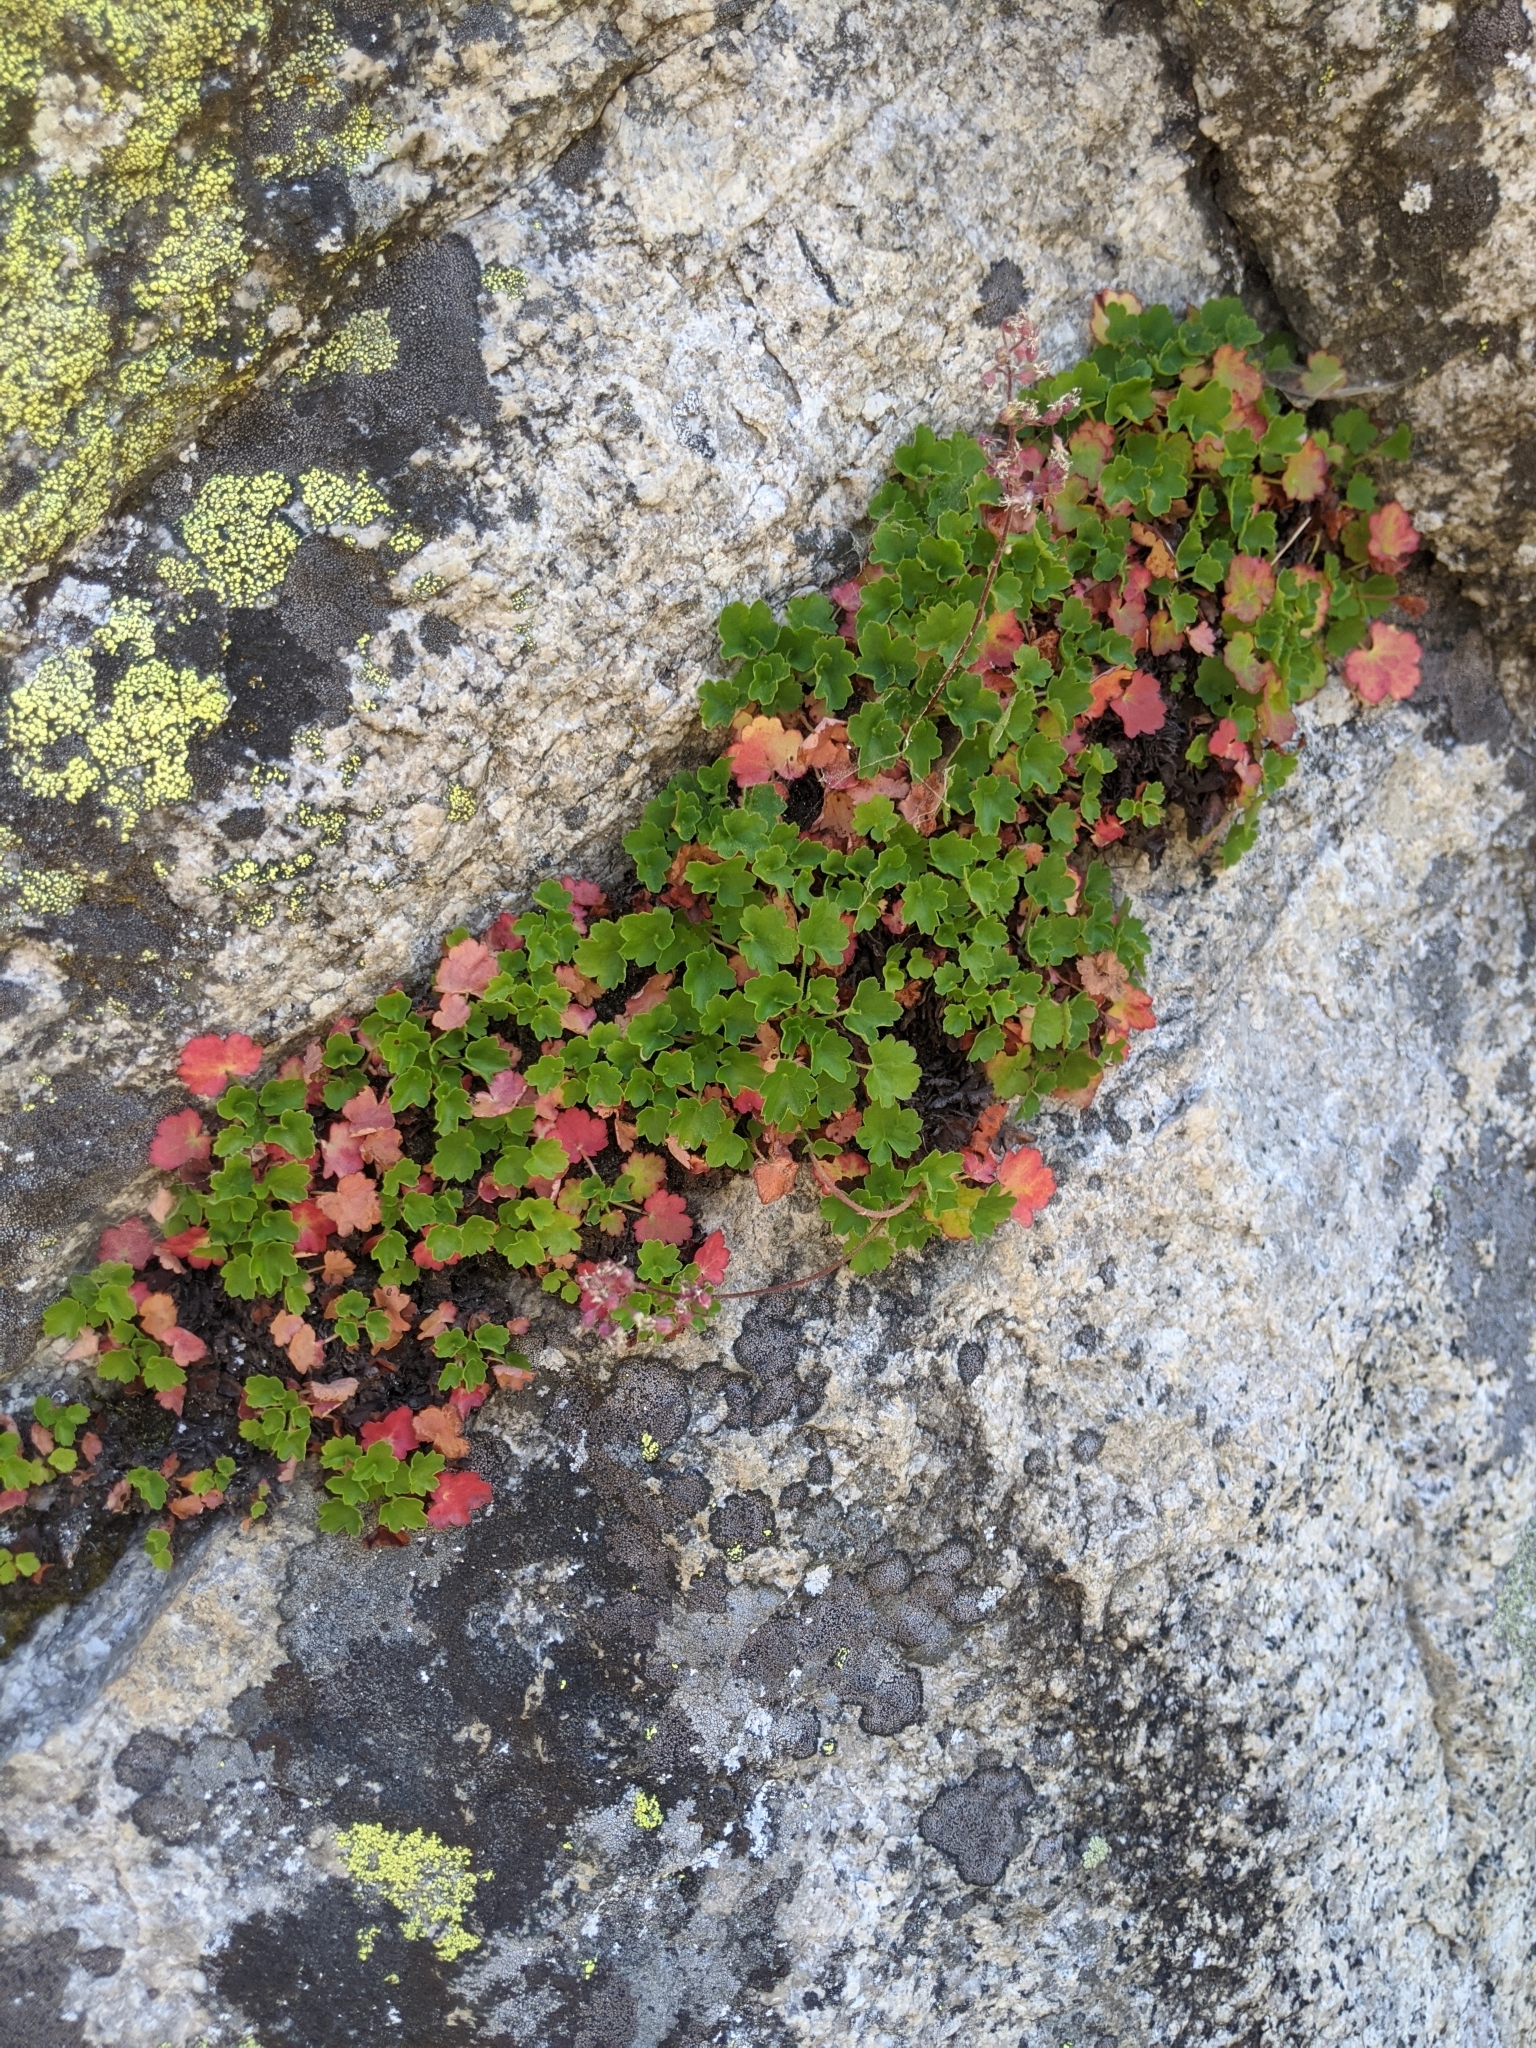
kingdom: Plantae
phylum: Tracheophyta
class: Magnoliopsida
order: Saxifragales
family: Saxifragaceae
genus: Heuchera
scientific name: Heuchera rubescens
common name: Jack-o'the-rocks
